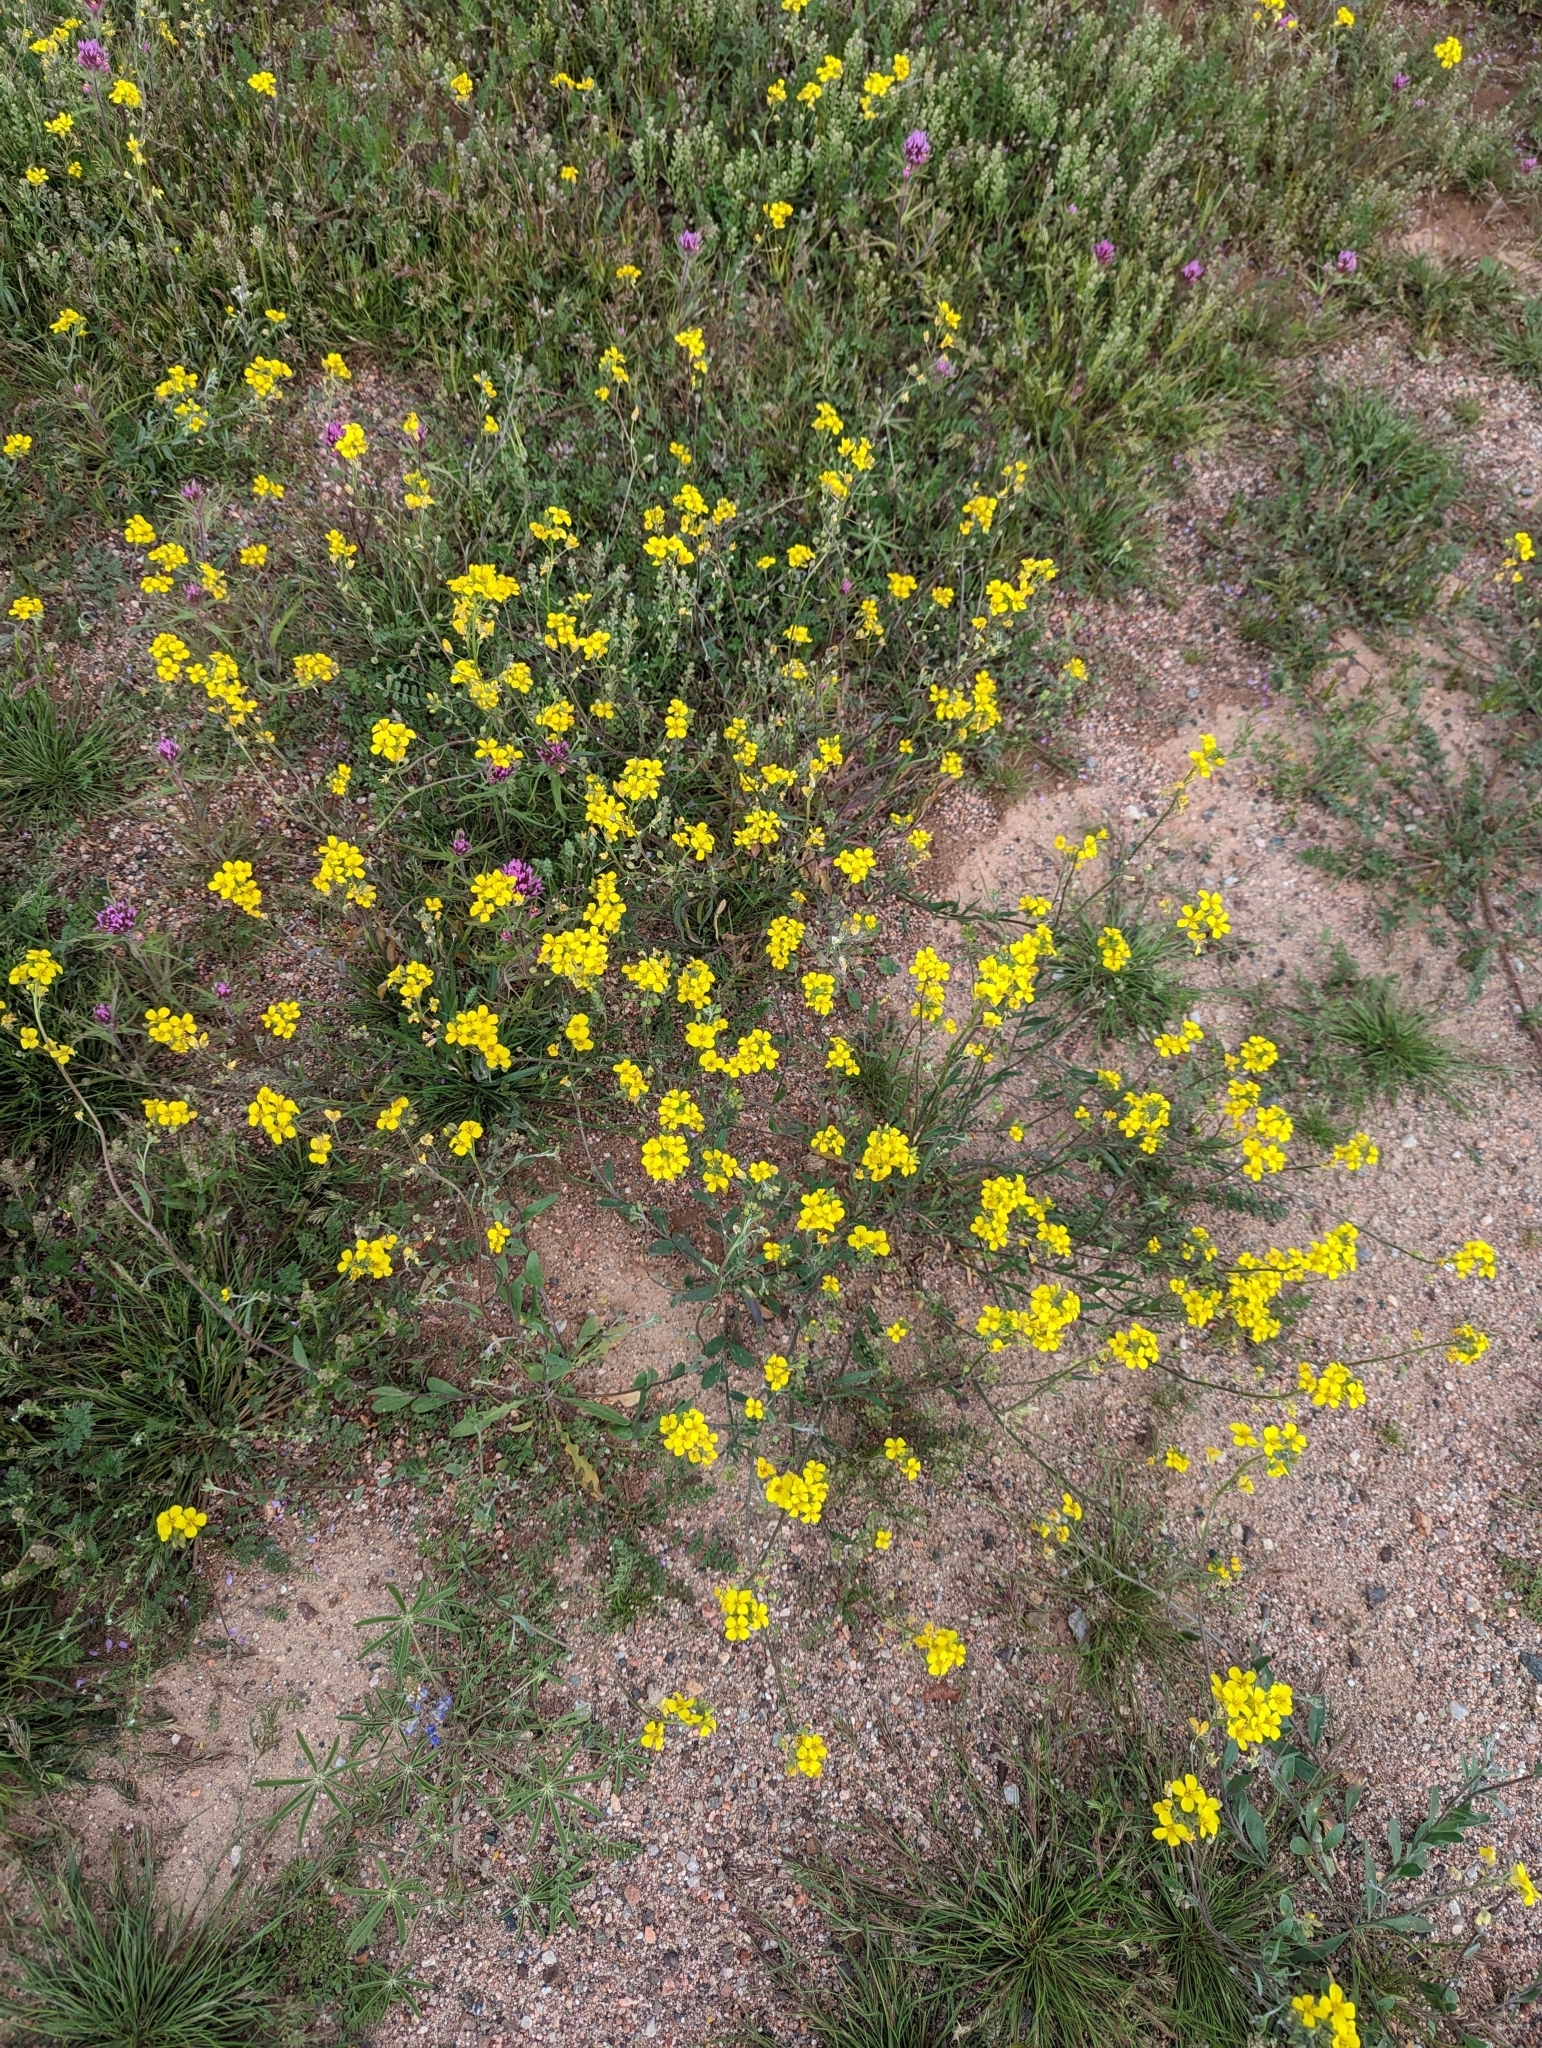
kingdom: Plantae
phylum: Tracheophyta
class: Magnoliopsida
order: Brassicales
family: Brassicaceae
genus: Physaria
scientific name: Physaria tenella
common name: Moapa bladderpod
